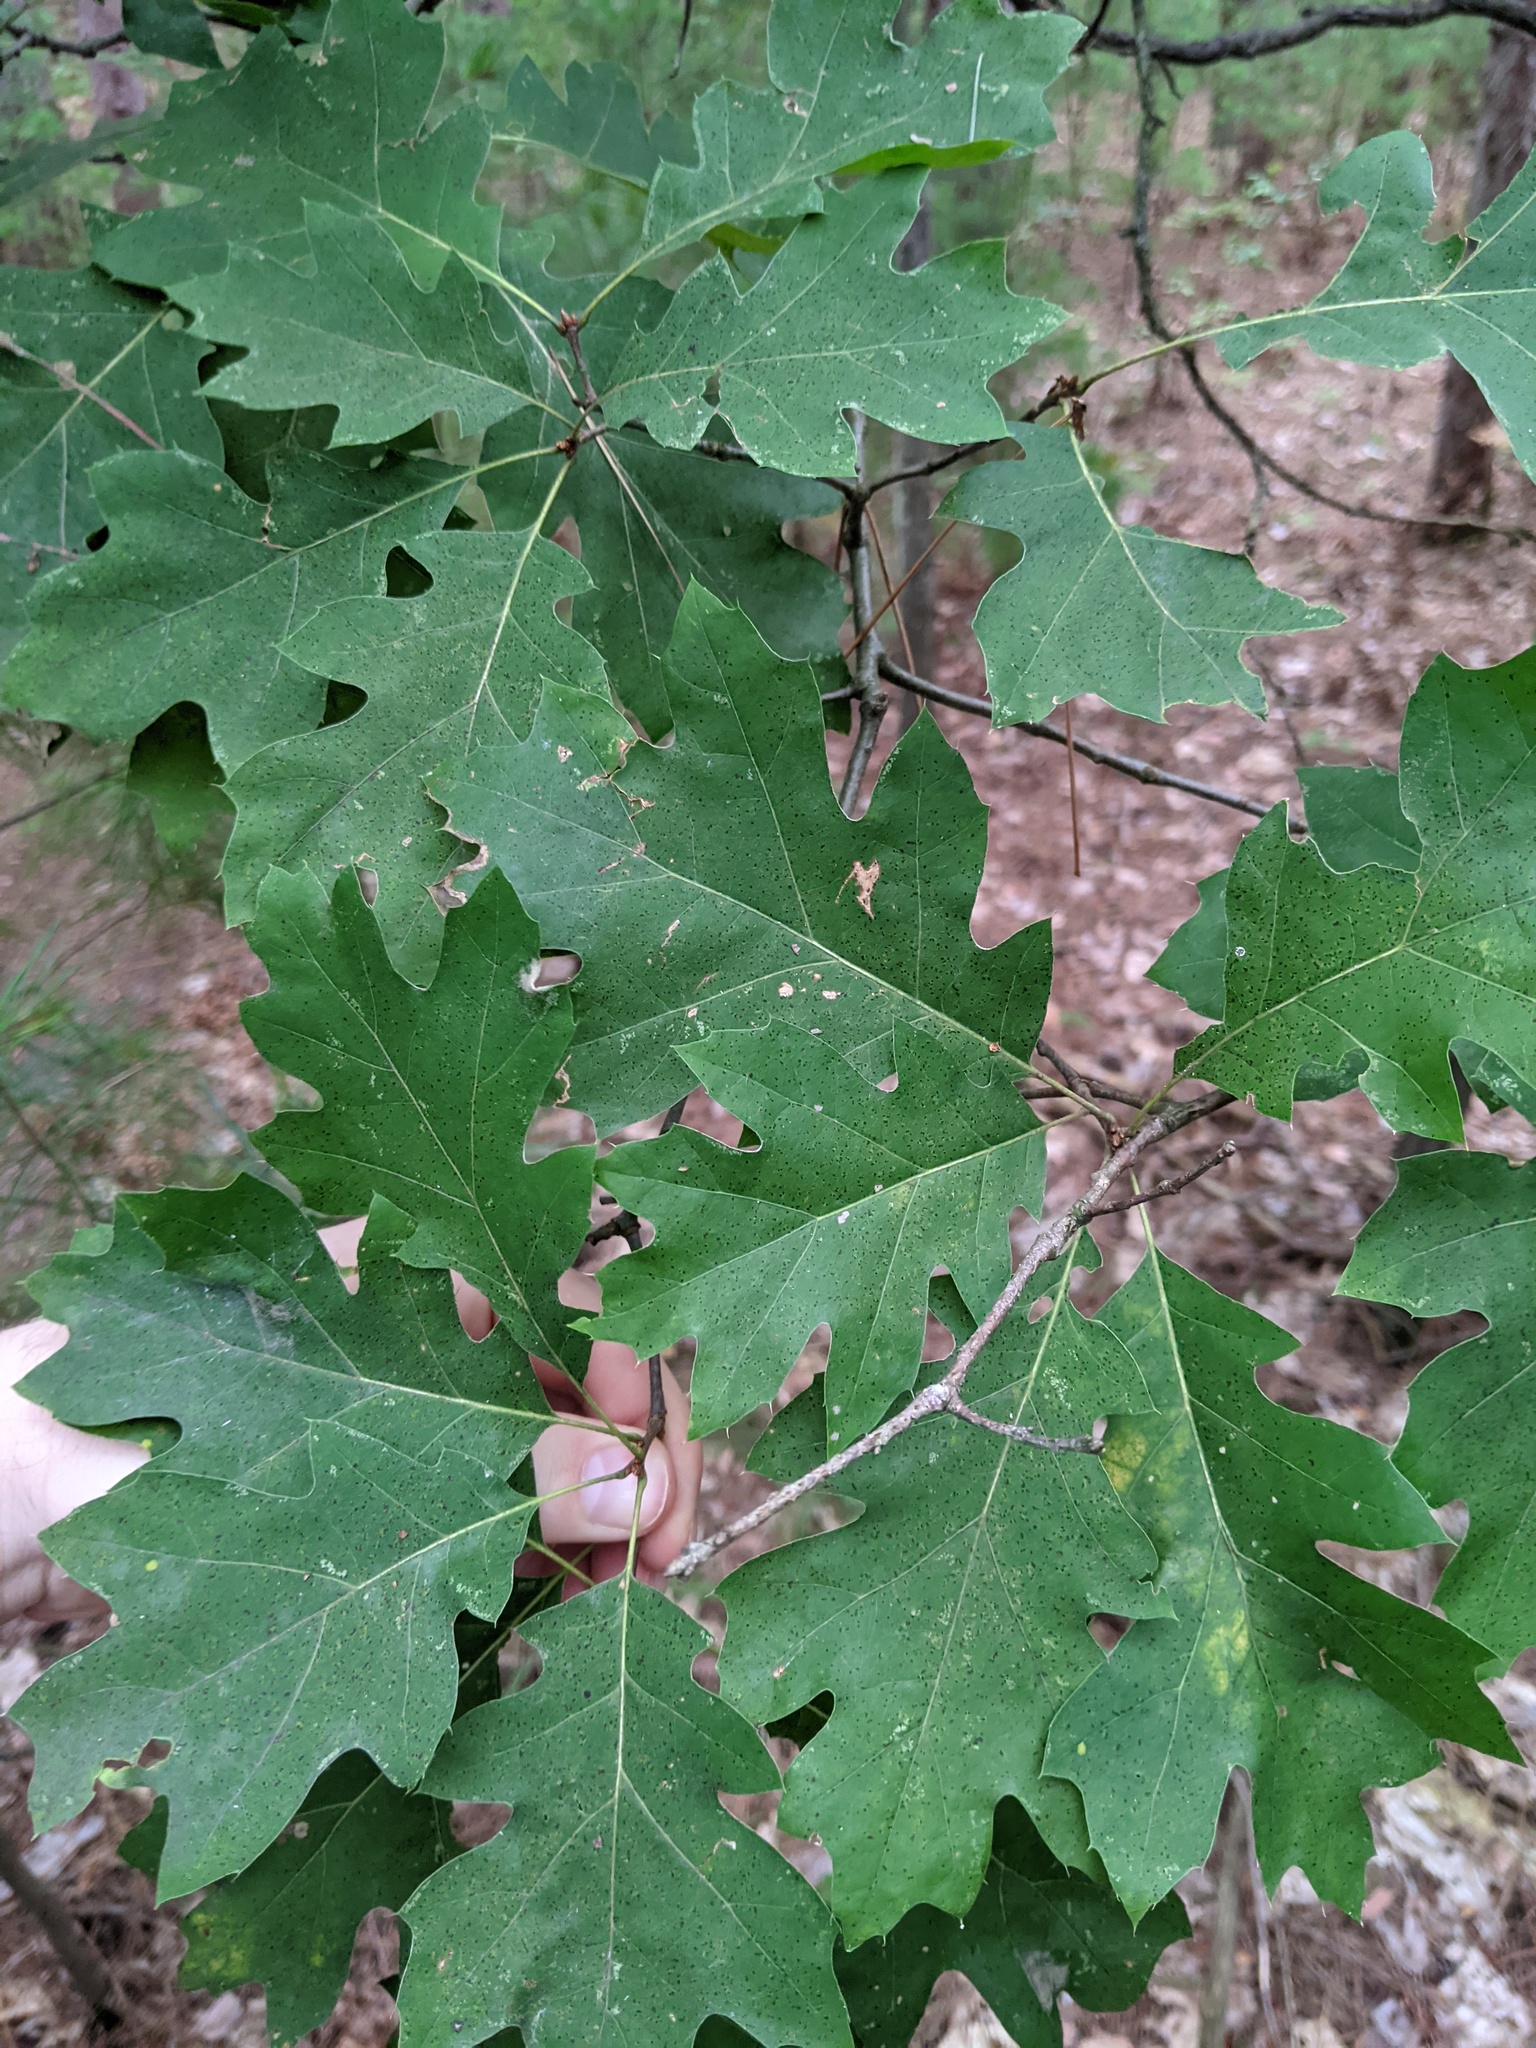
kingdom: Plantae
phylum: Tracheophyta
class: Magnoliopsida
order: Fagales
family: Fagaceae
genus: Quercus
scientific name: Quercus velutina
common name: Black oak
